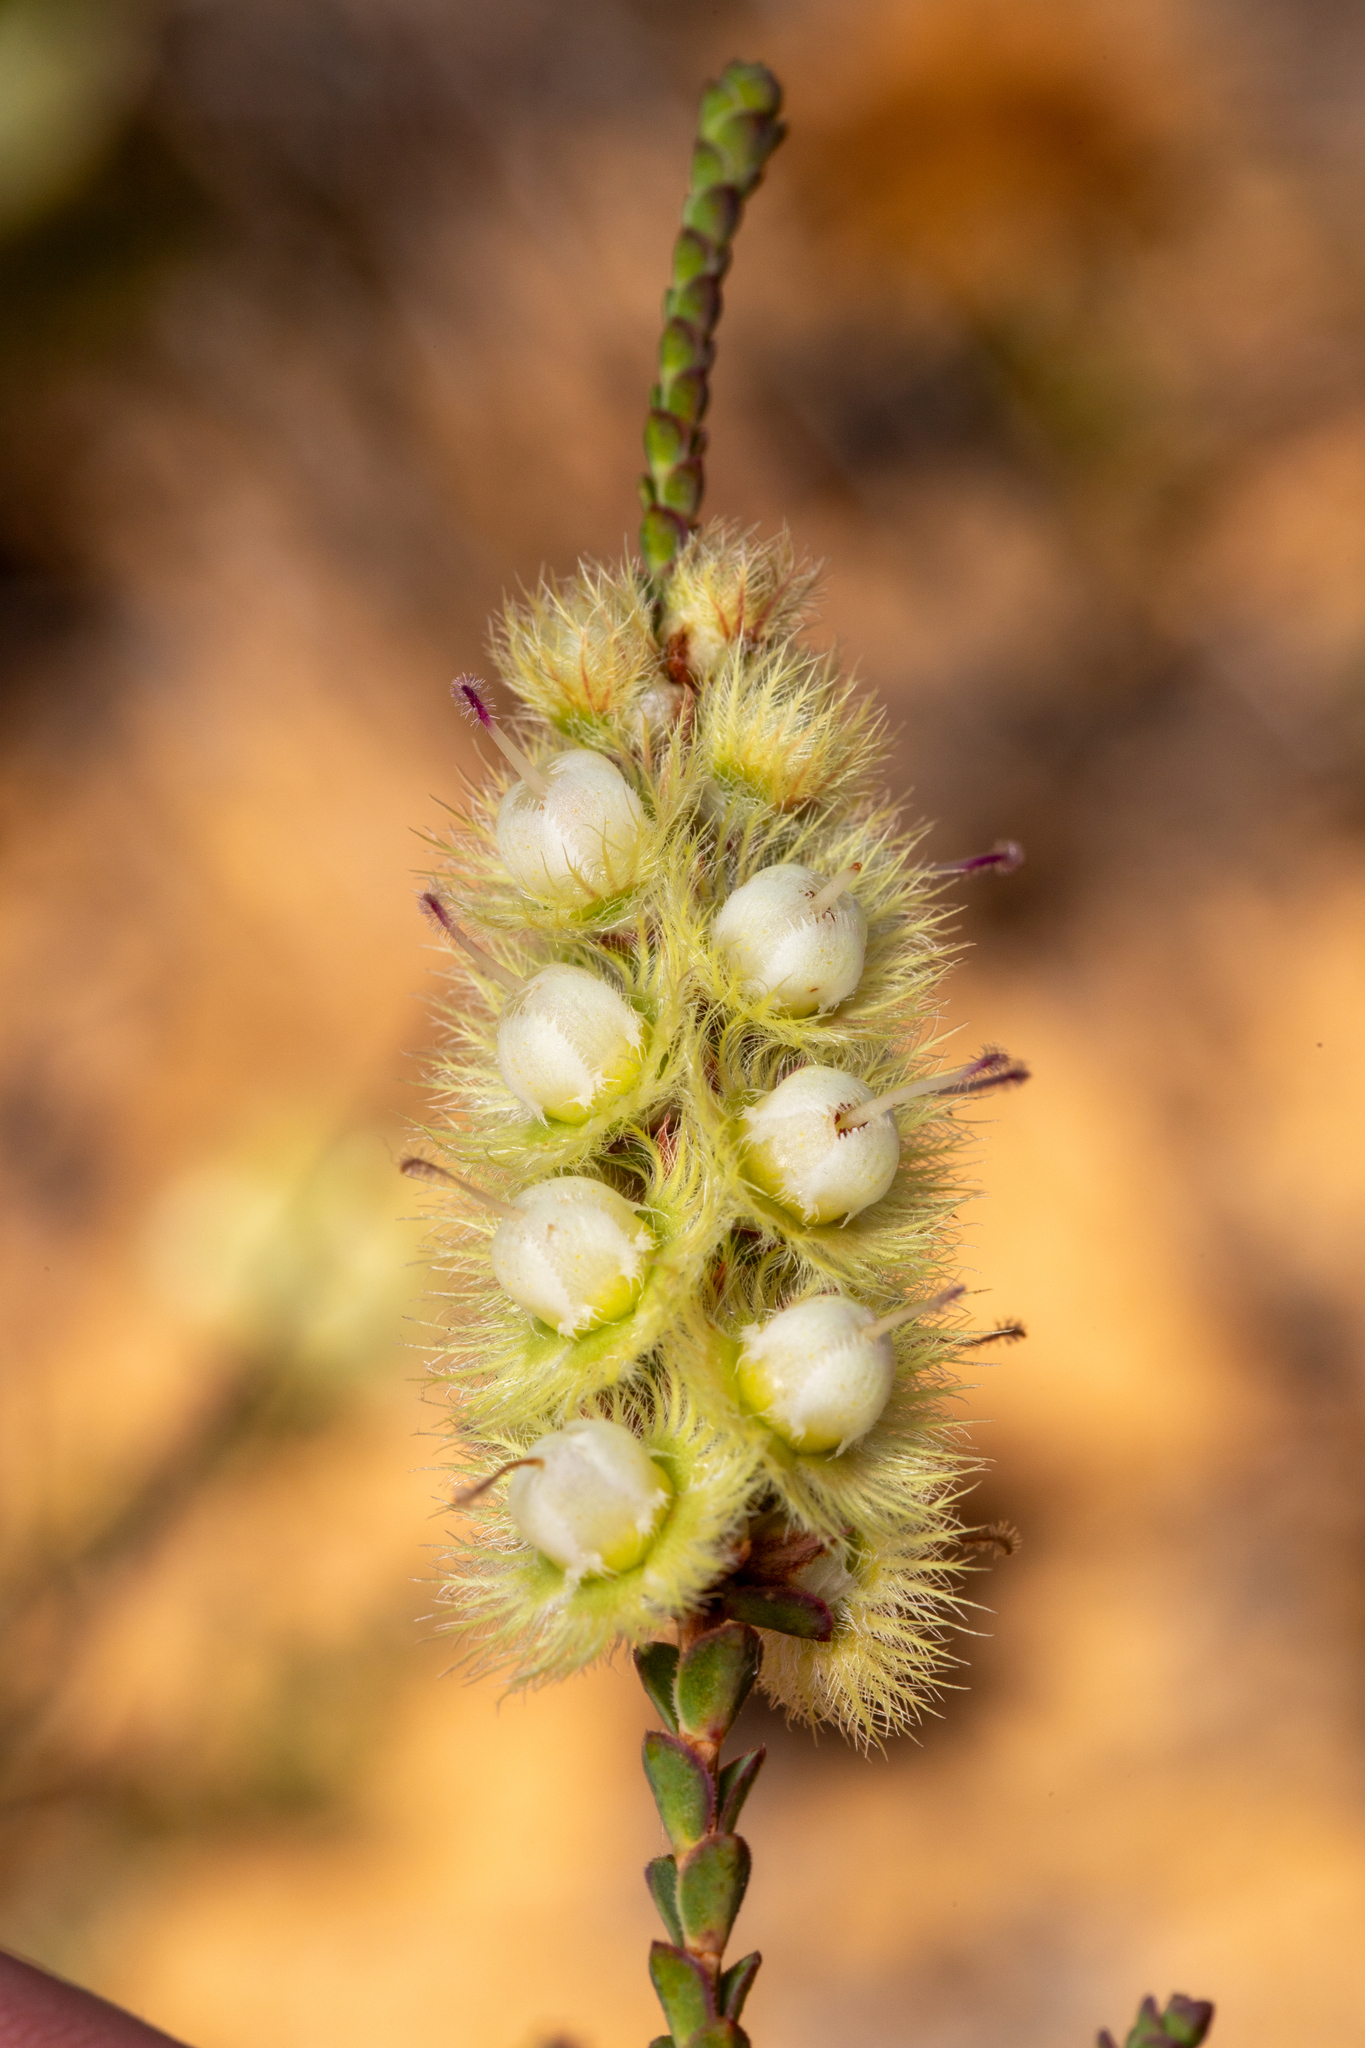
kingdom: Plantae
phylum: Tracheophyta
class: Magnoliopsida
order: Myrtales
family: Myrtaceae
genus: Verticordia
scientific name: Verticordia spicata
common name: Spike feather-flower
